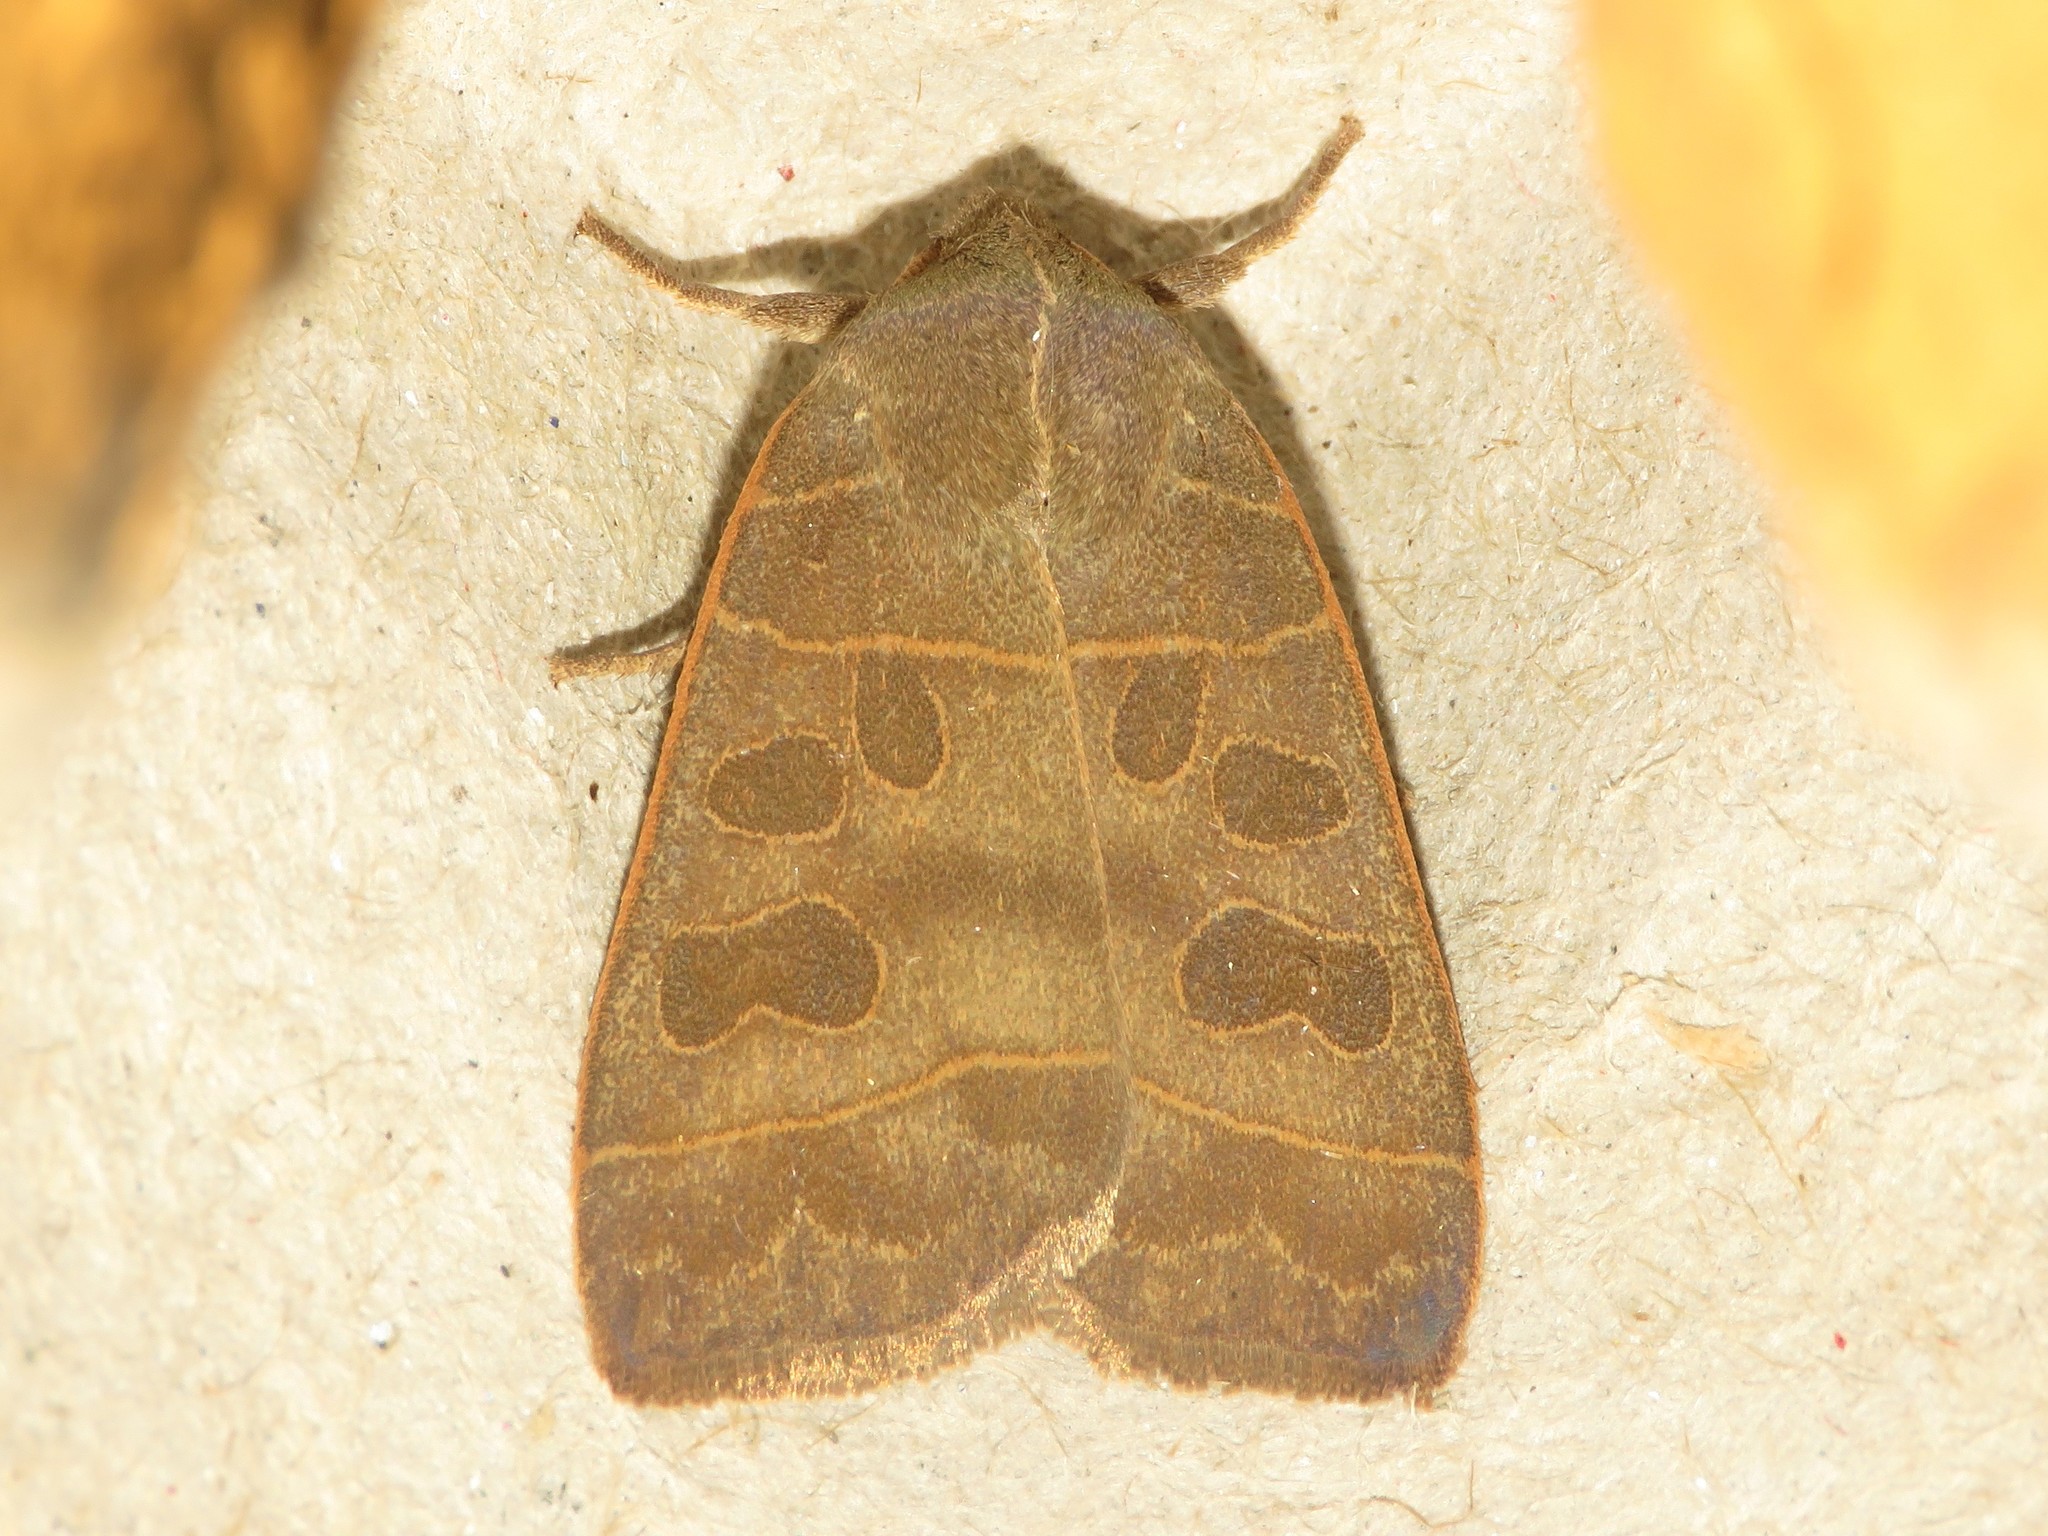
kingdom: Animalia
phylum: Arthropoda
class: Insecta
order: Lepidoptera
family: Noctuidae
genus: Ipimorpha
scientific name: Ipimorpha pleonectusa
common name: Even-lined sallow
